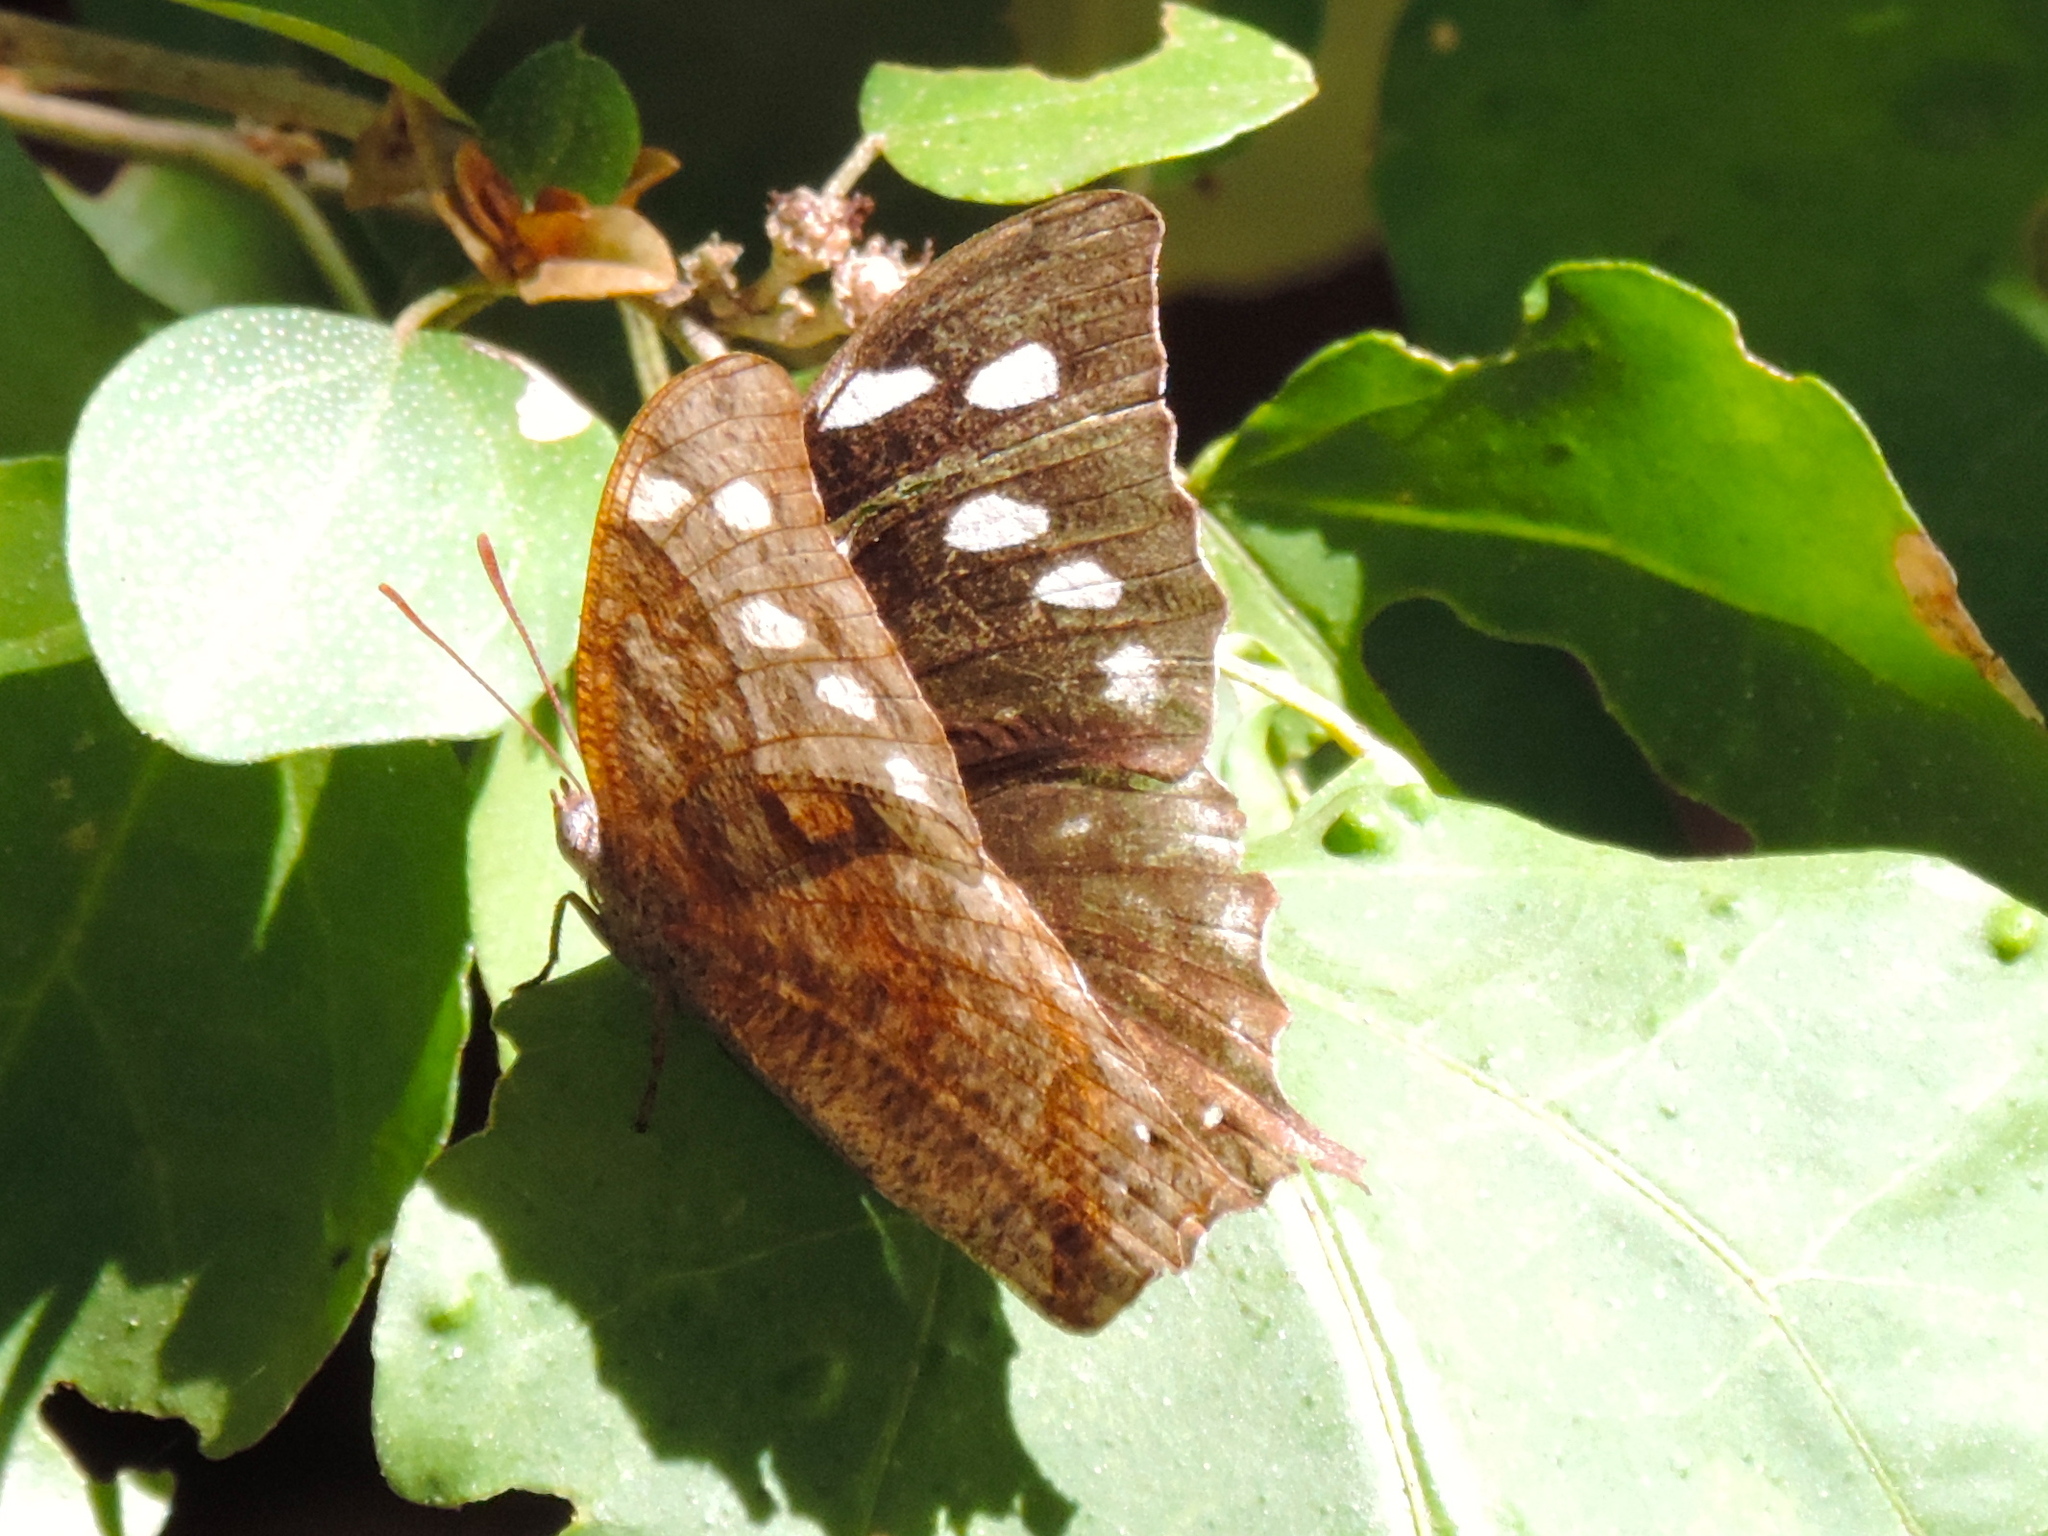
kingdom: Animalia
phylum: Arthropoda
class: Insecta
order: Lepidoptera
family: Nymphalidae
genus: Anaea
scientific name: Anaea pithyusa
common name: Pale-spotted leafwing
